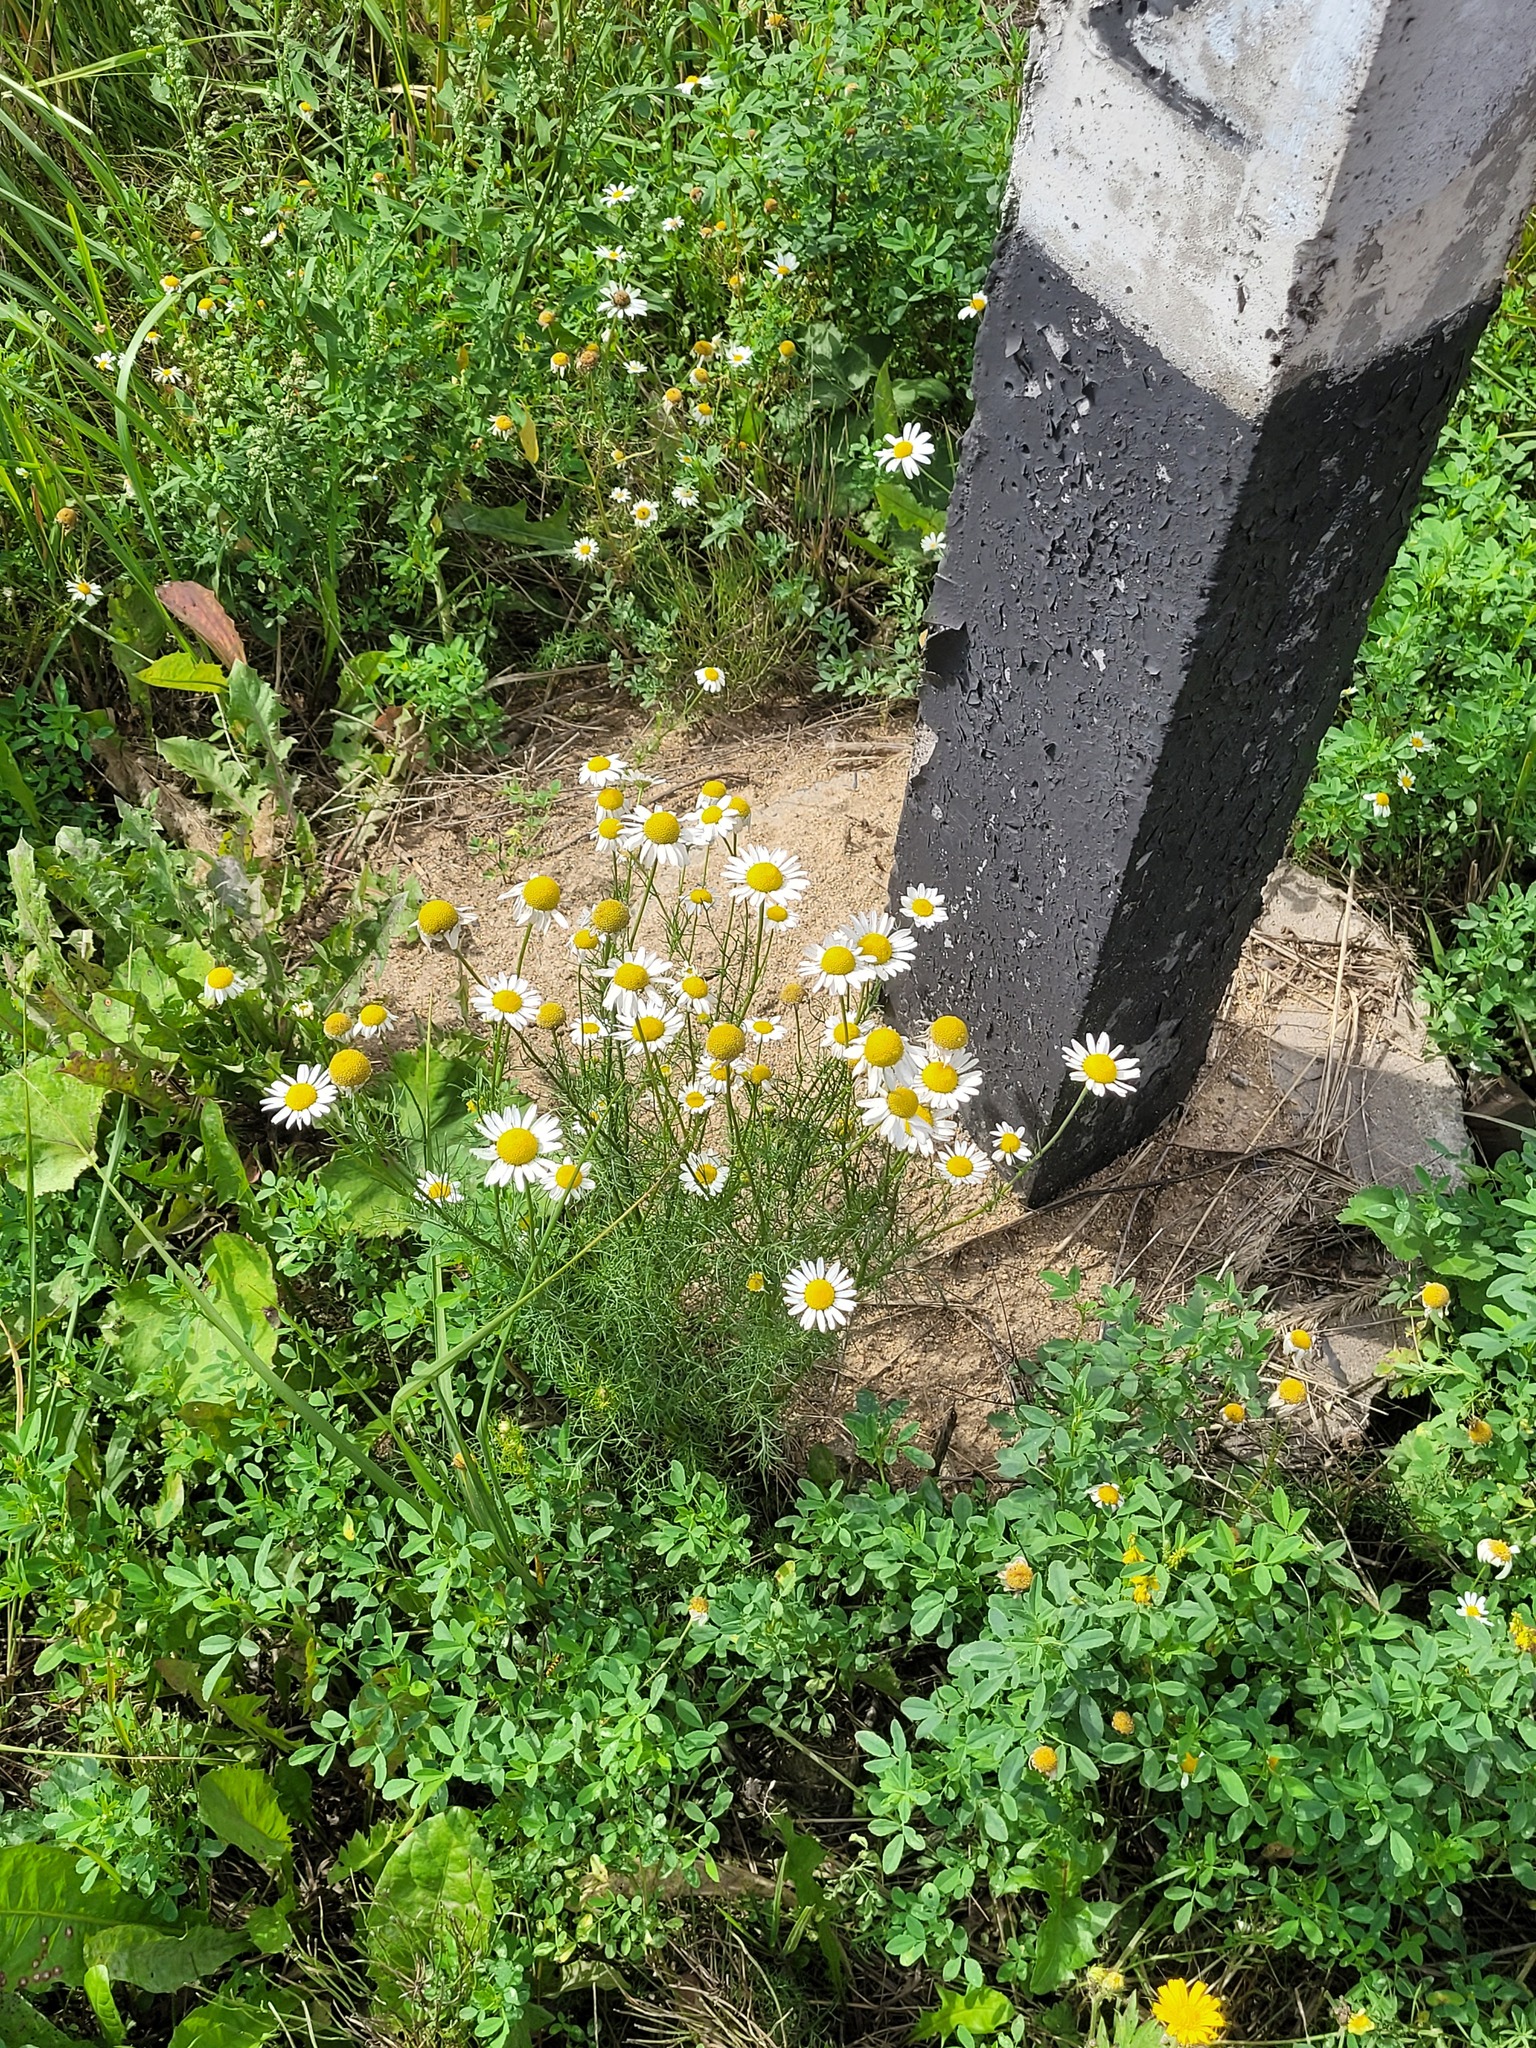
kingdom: Plantae
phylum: Tracheophyta
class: Magnoliopsida
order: Asterales
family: Asteraceae
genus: Tripleurospermum
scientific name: Tripleurospermum inodorum
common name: Scentless mayweed
